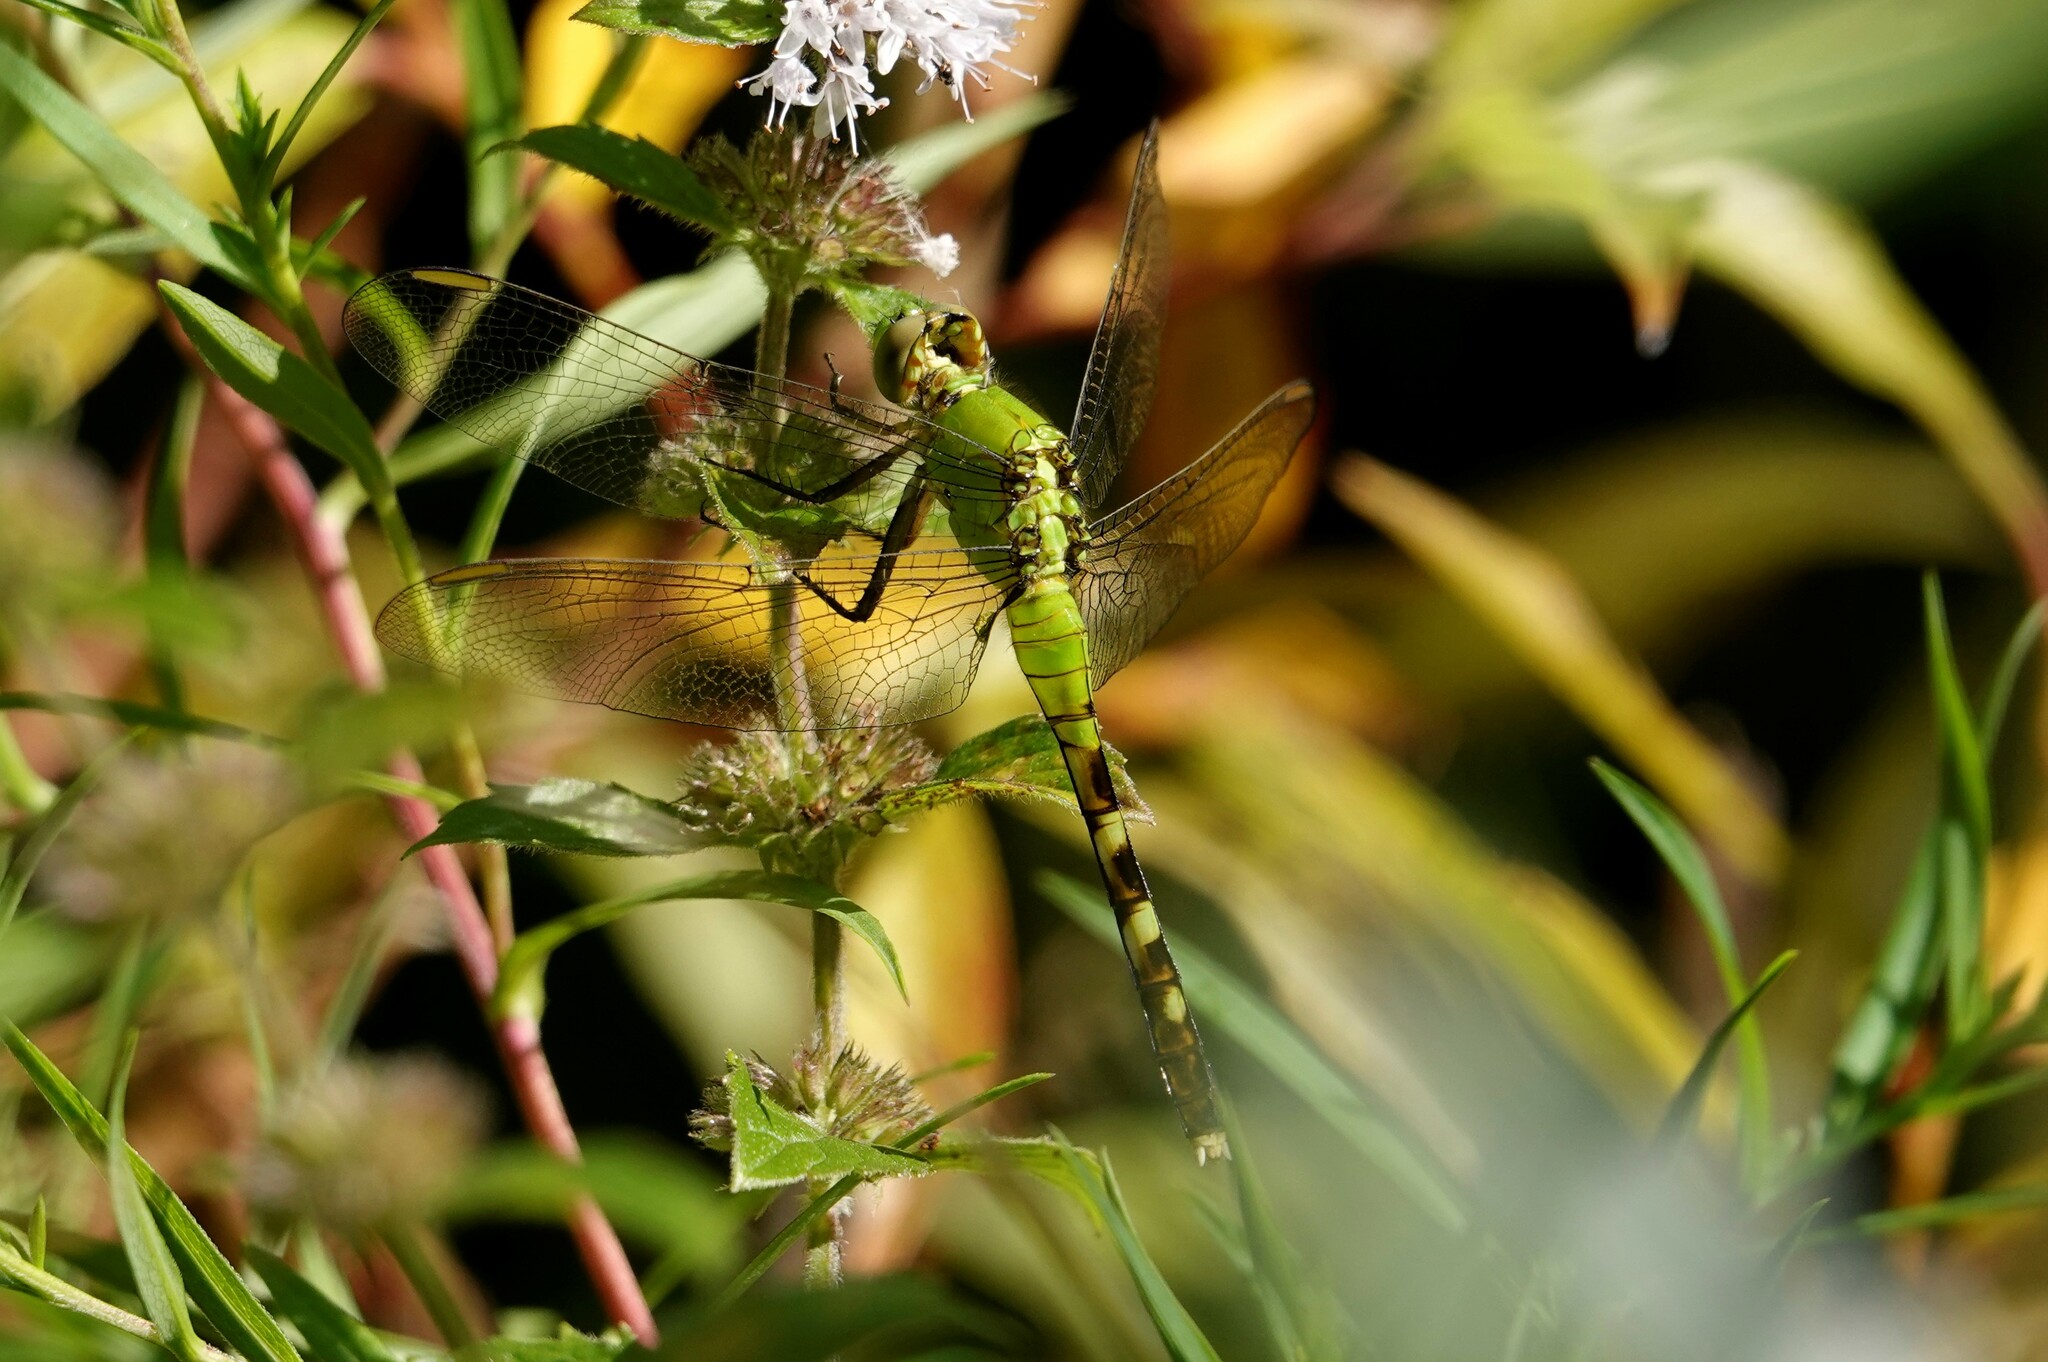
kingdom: Animalia
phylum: Arthropoda
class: Insecta
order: Odonata
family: Libellulidae
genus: Erythemis
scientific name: Erythemis simplicicollis
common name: Eastern pondhawk
